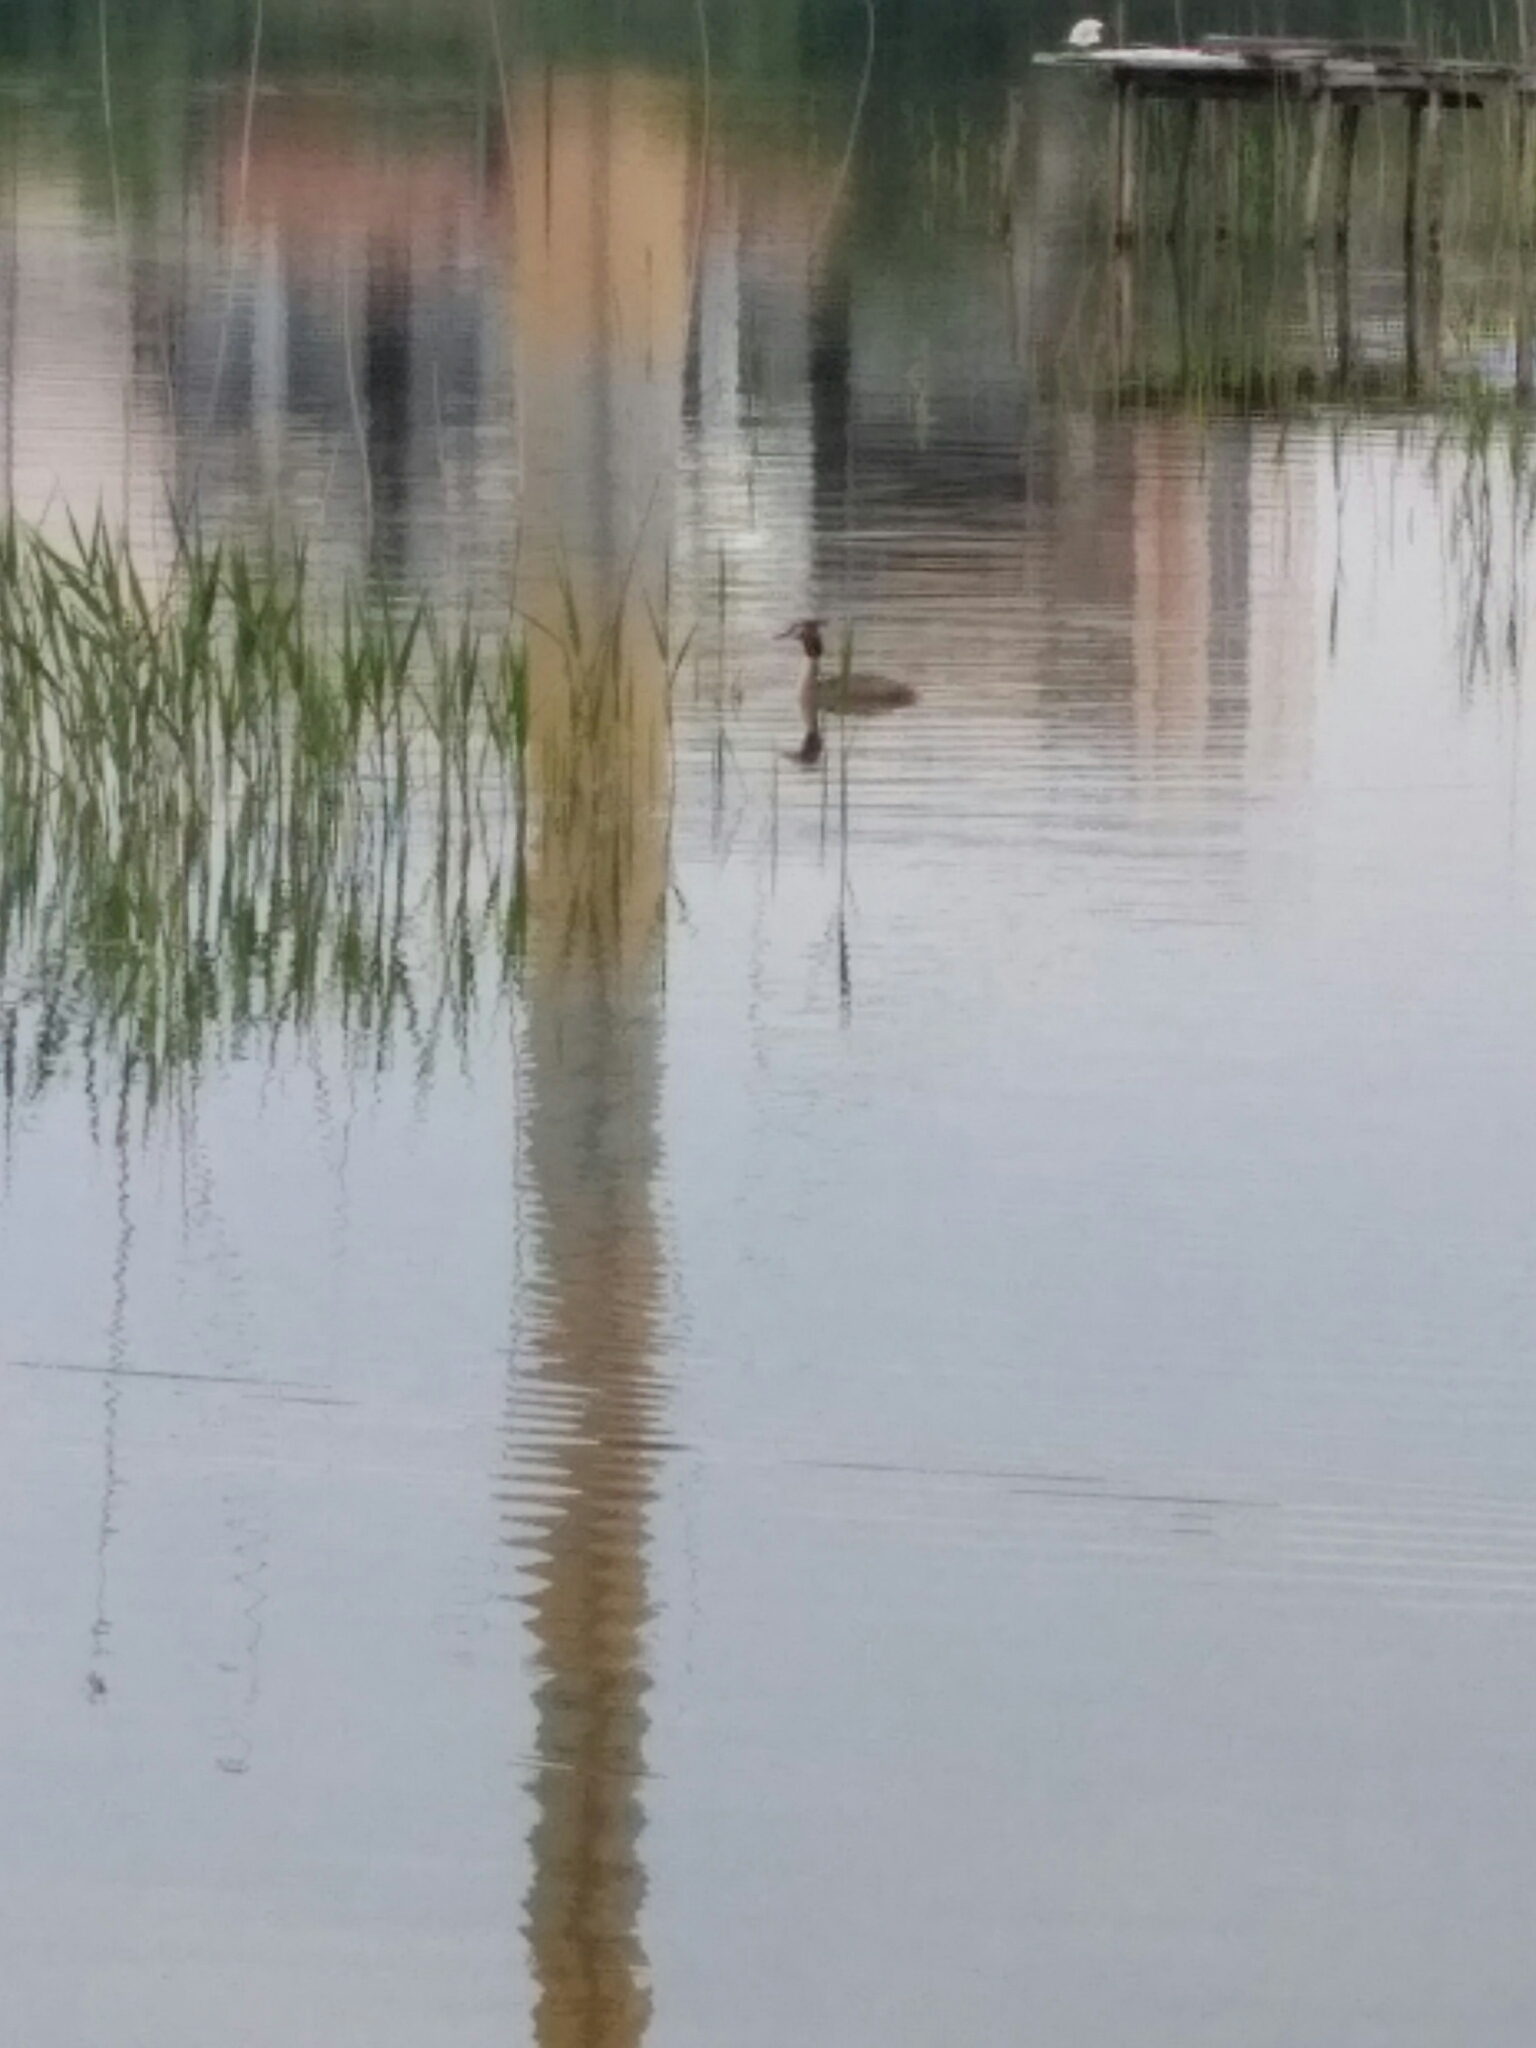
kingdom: Animalia
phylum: Chordata
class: Aves
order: Podicipediformes
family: Podicipedidae
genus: Podiceps
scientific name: Podiceps cristatus
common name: Great crested grebe
